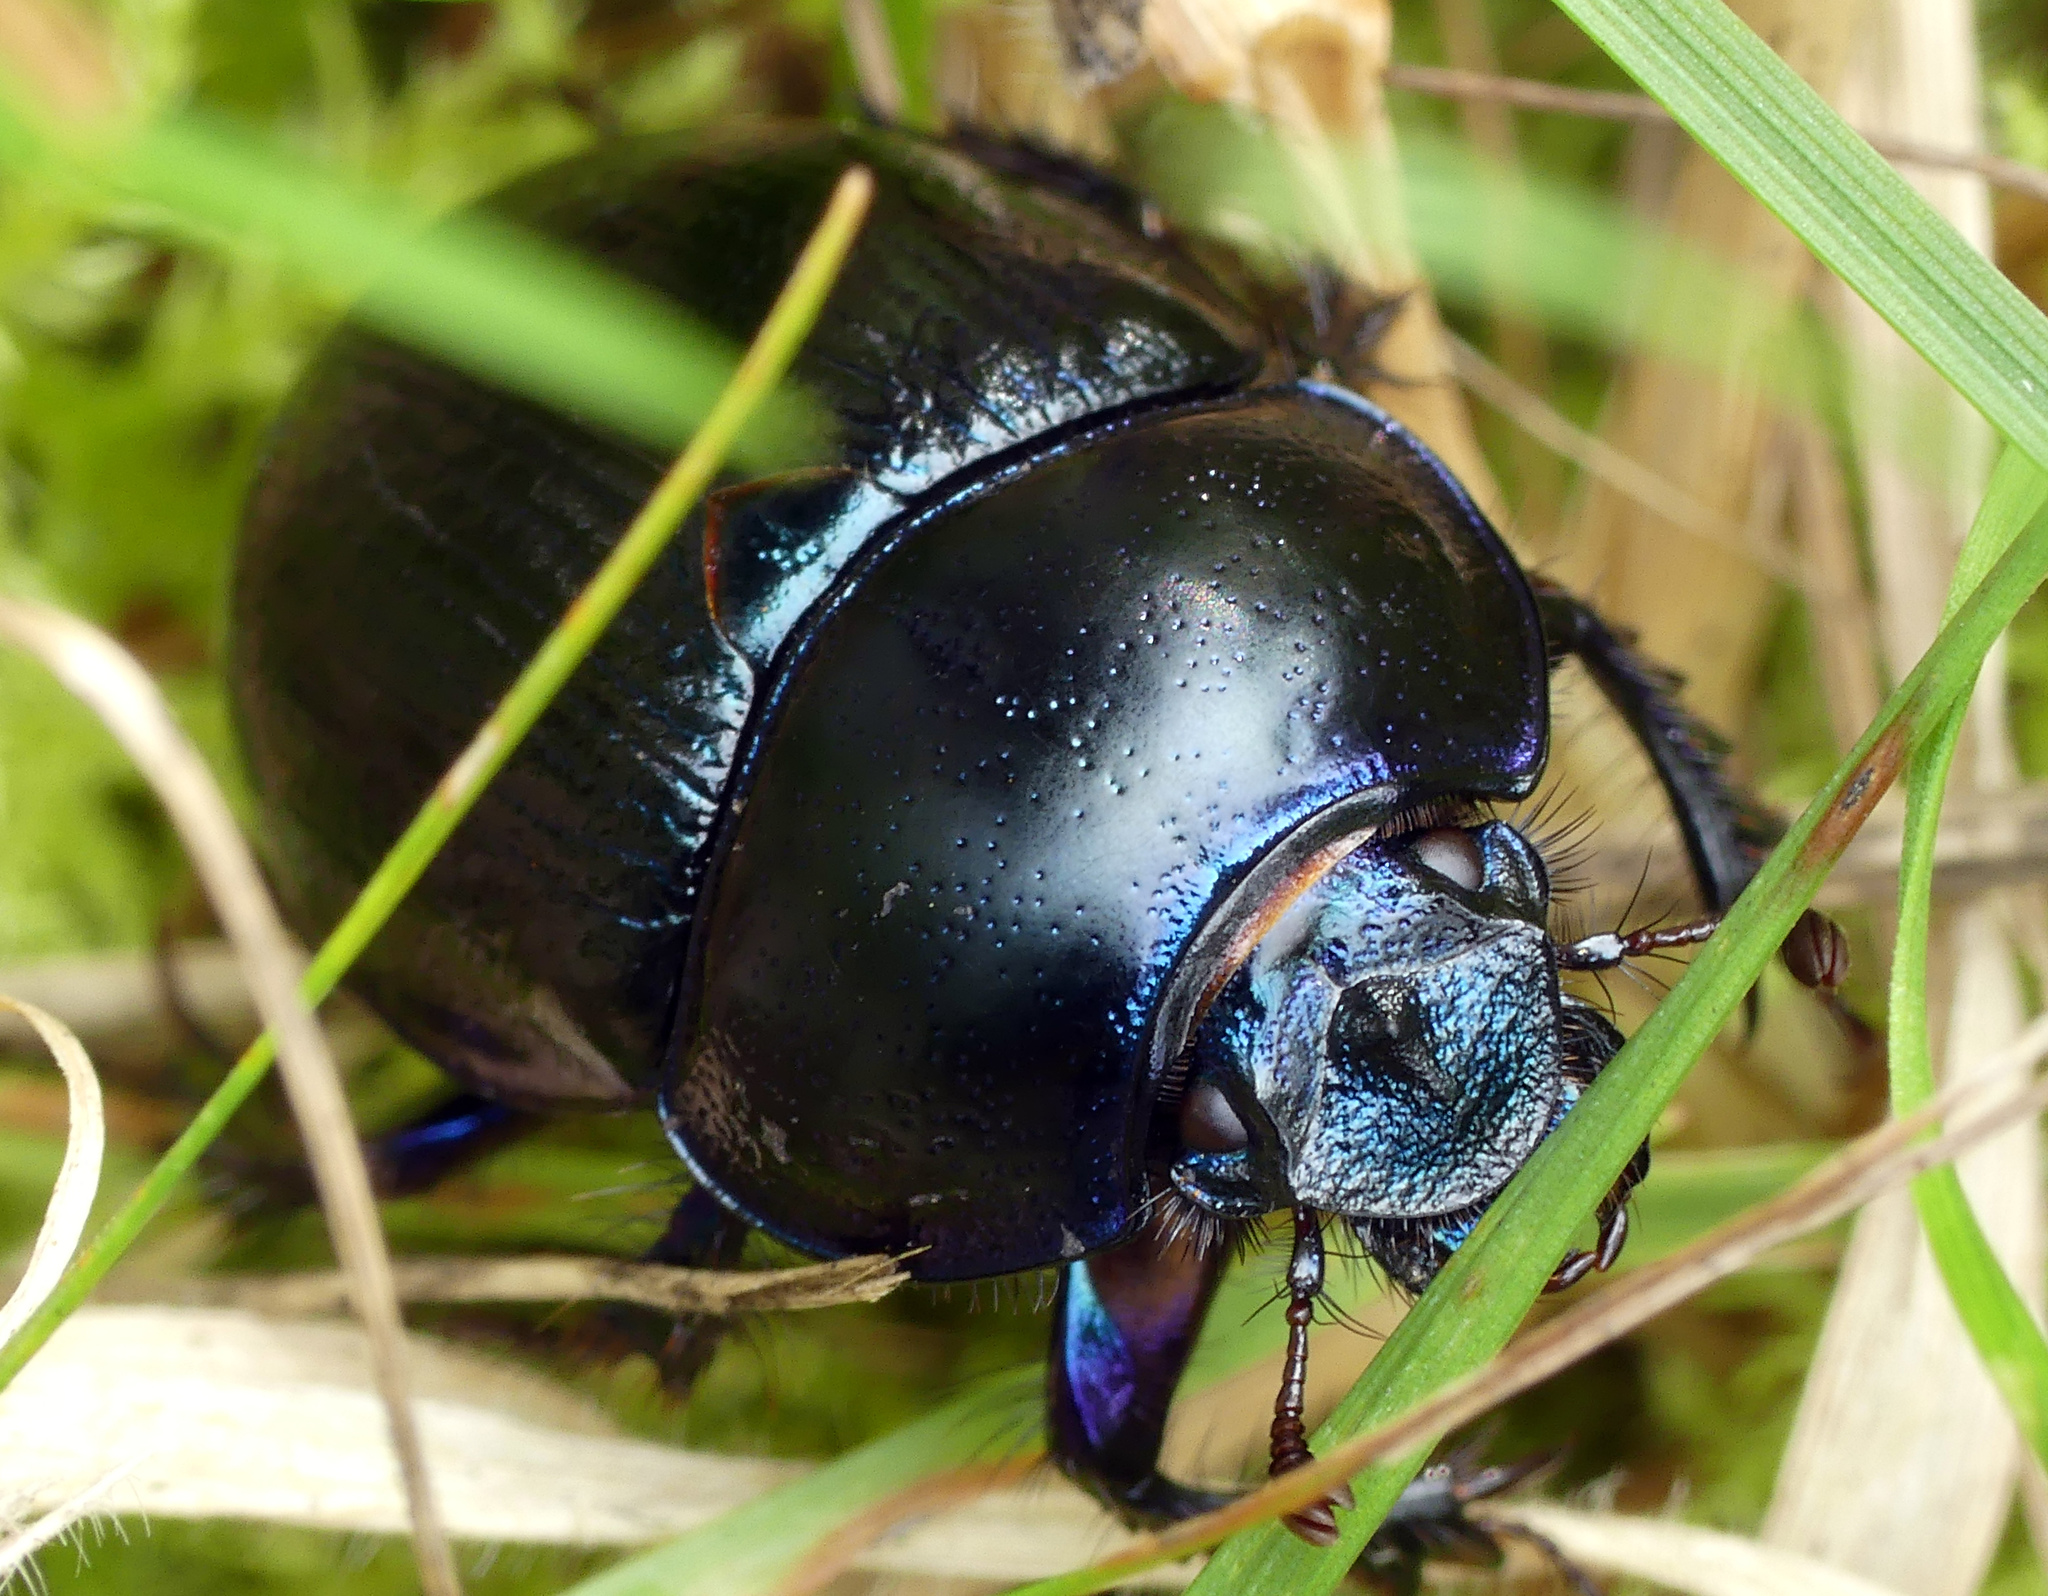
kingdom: Animalia
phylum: Arthropoda
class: Insecta
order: Coleoptera
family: Geotrupidae
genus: Anoplotrupes
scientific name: Anoplotrupes stercorosus
